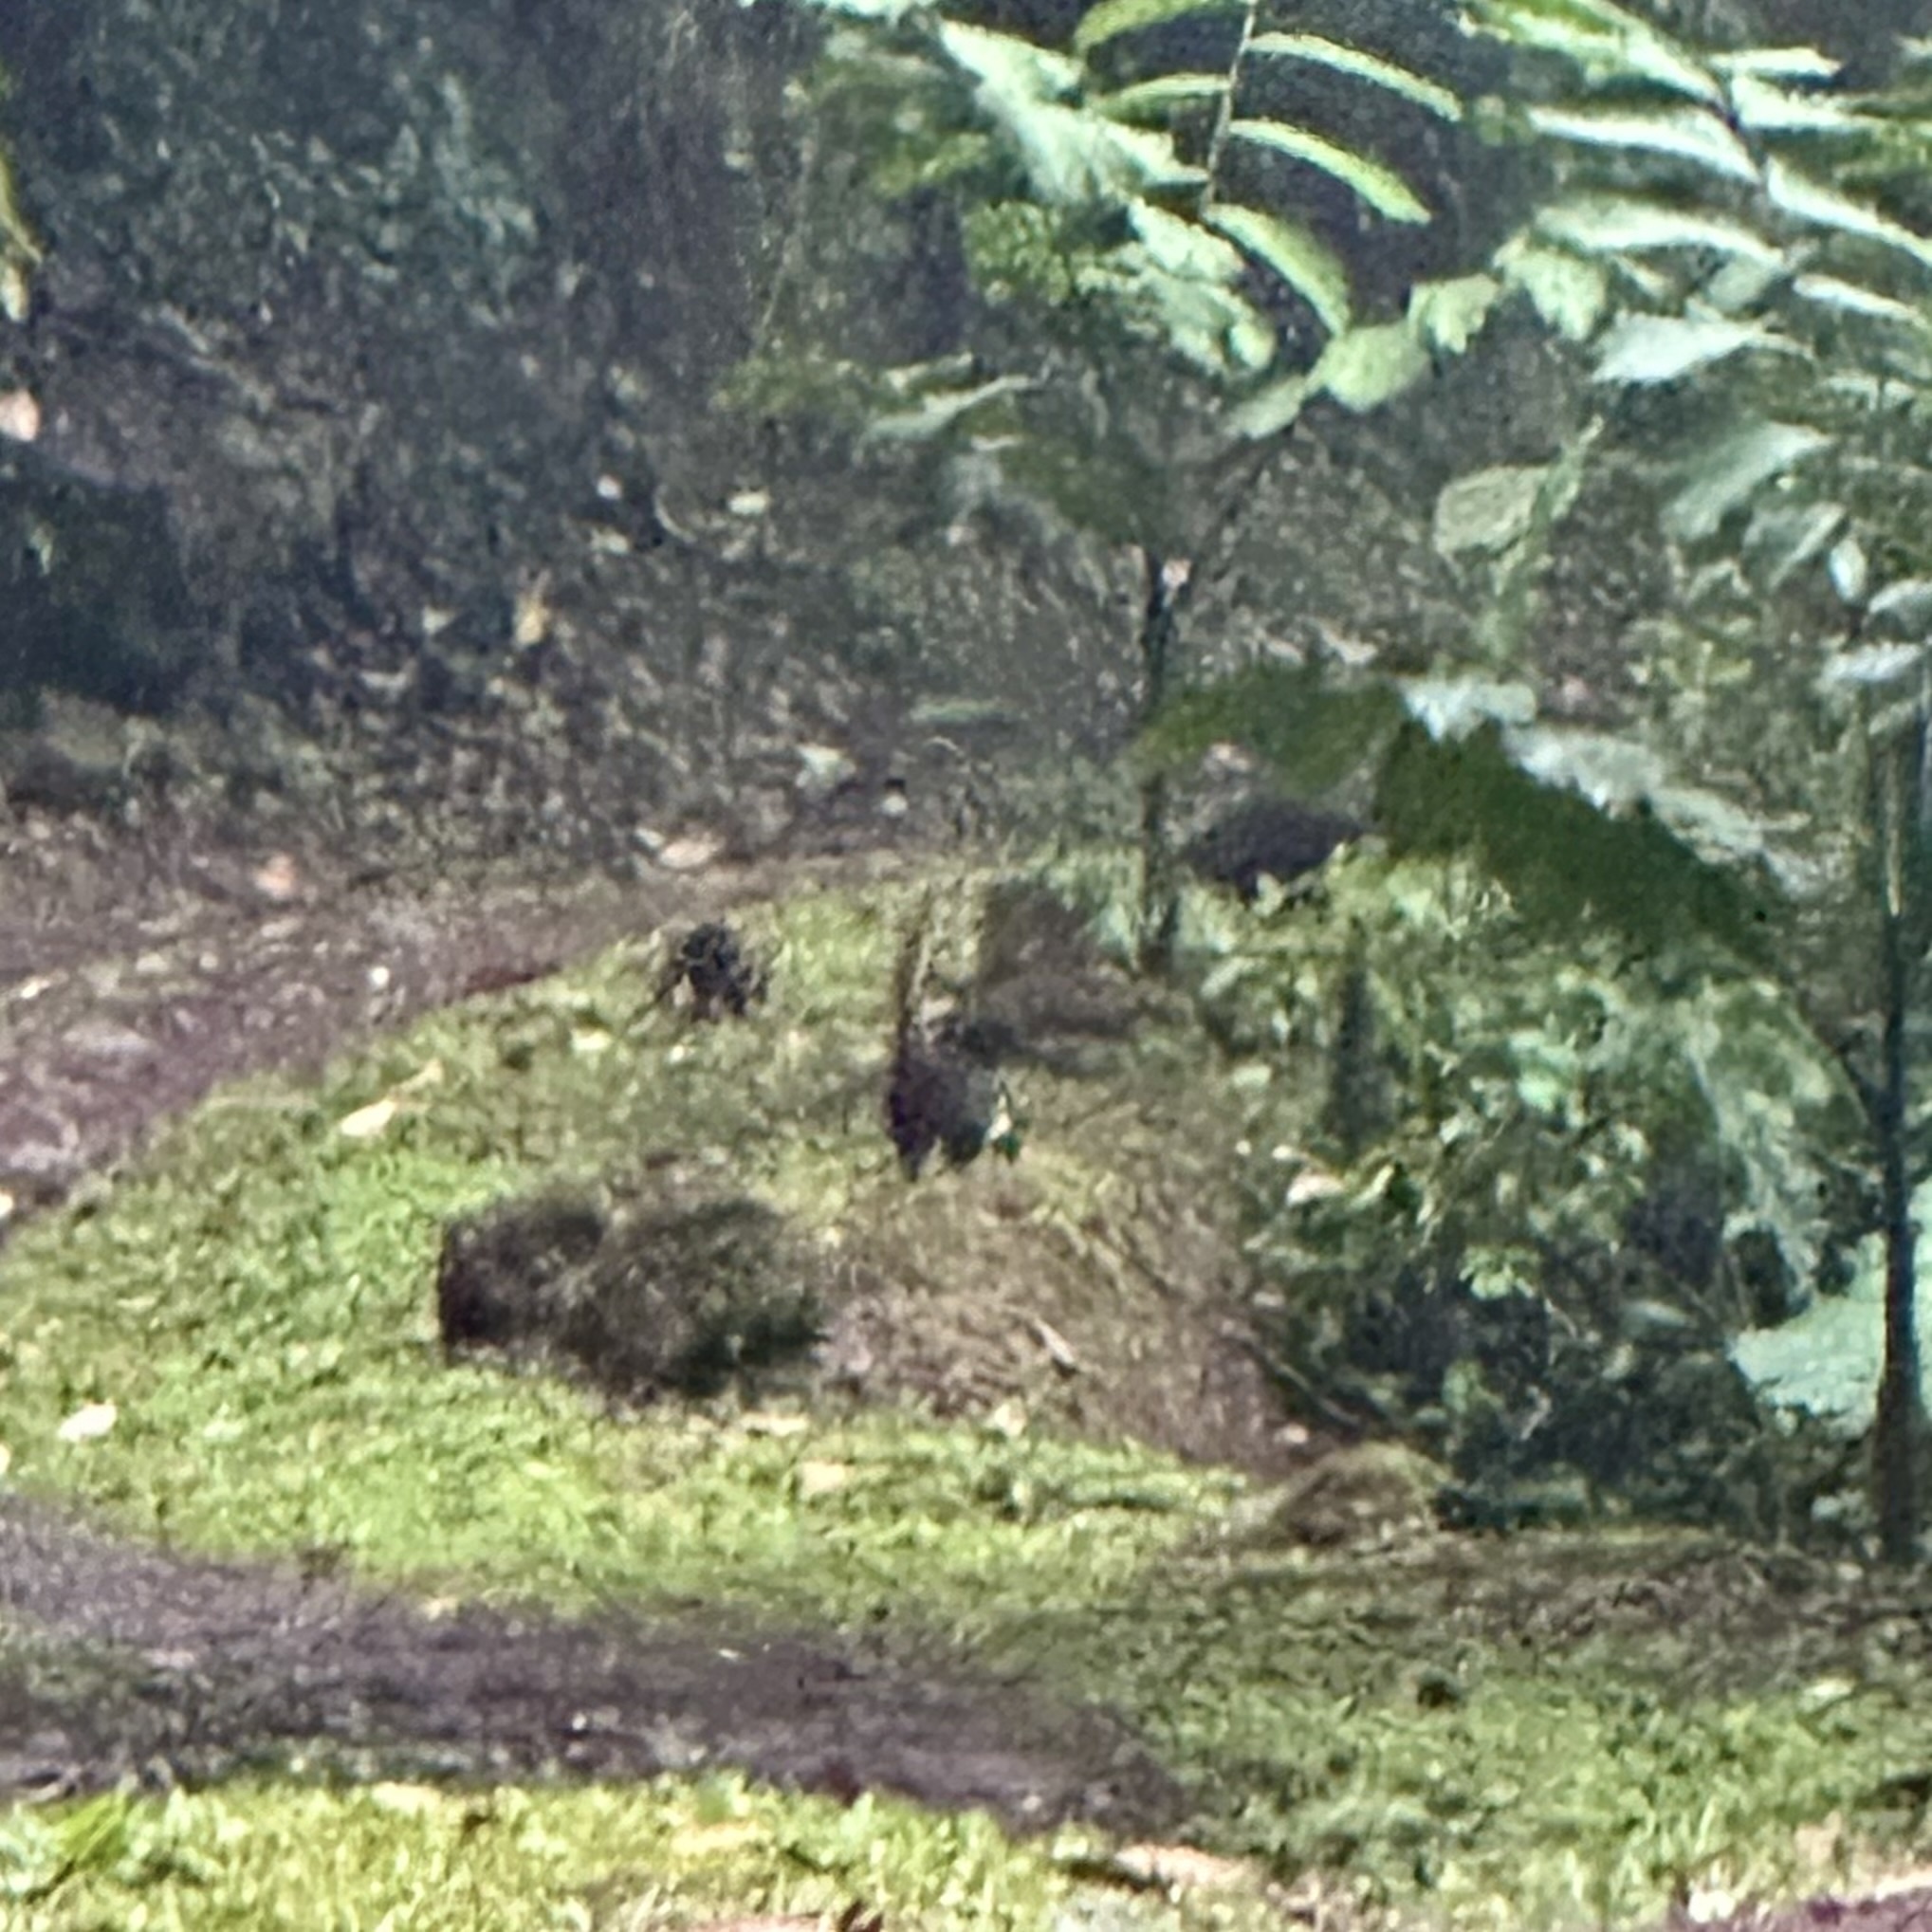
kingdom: Animalia
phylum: Chordata
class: Mammalia
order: Carnivora
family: Procyonidae
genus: Nasua
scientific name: Nasua narica
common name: White-nosed coati
